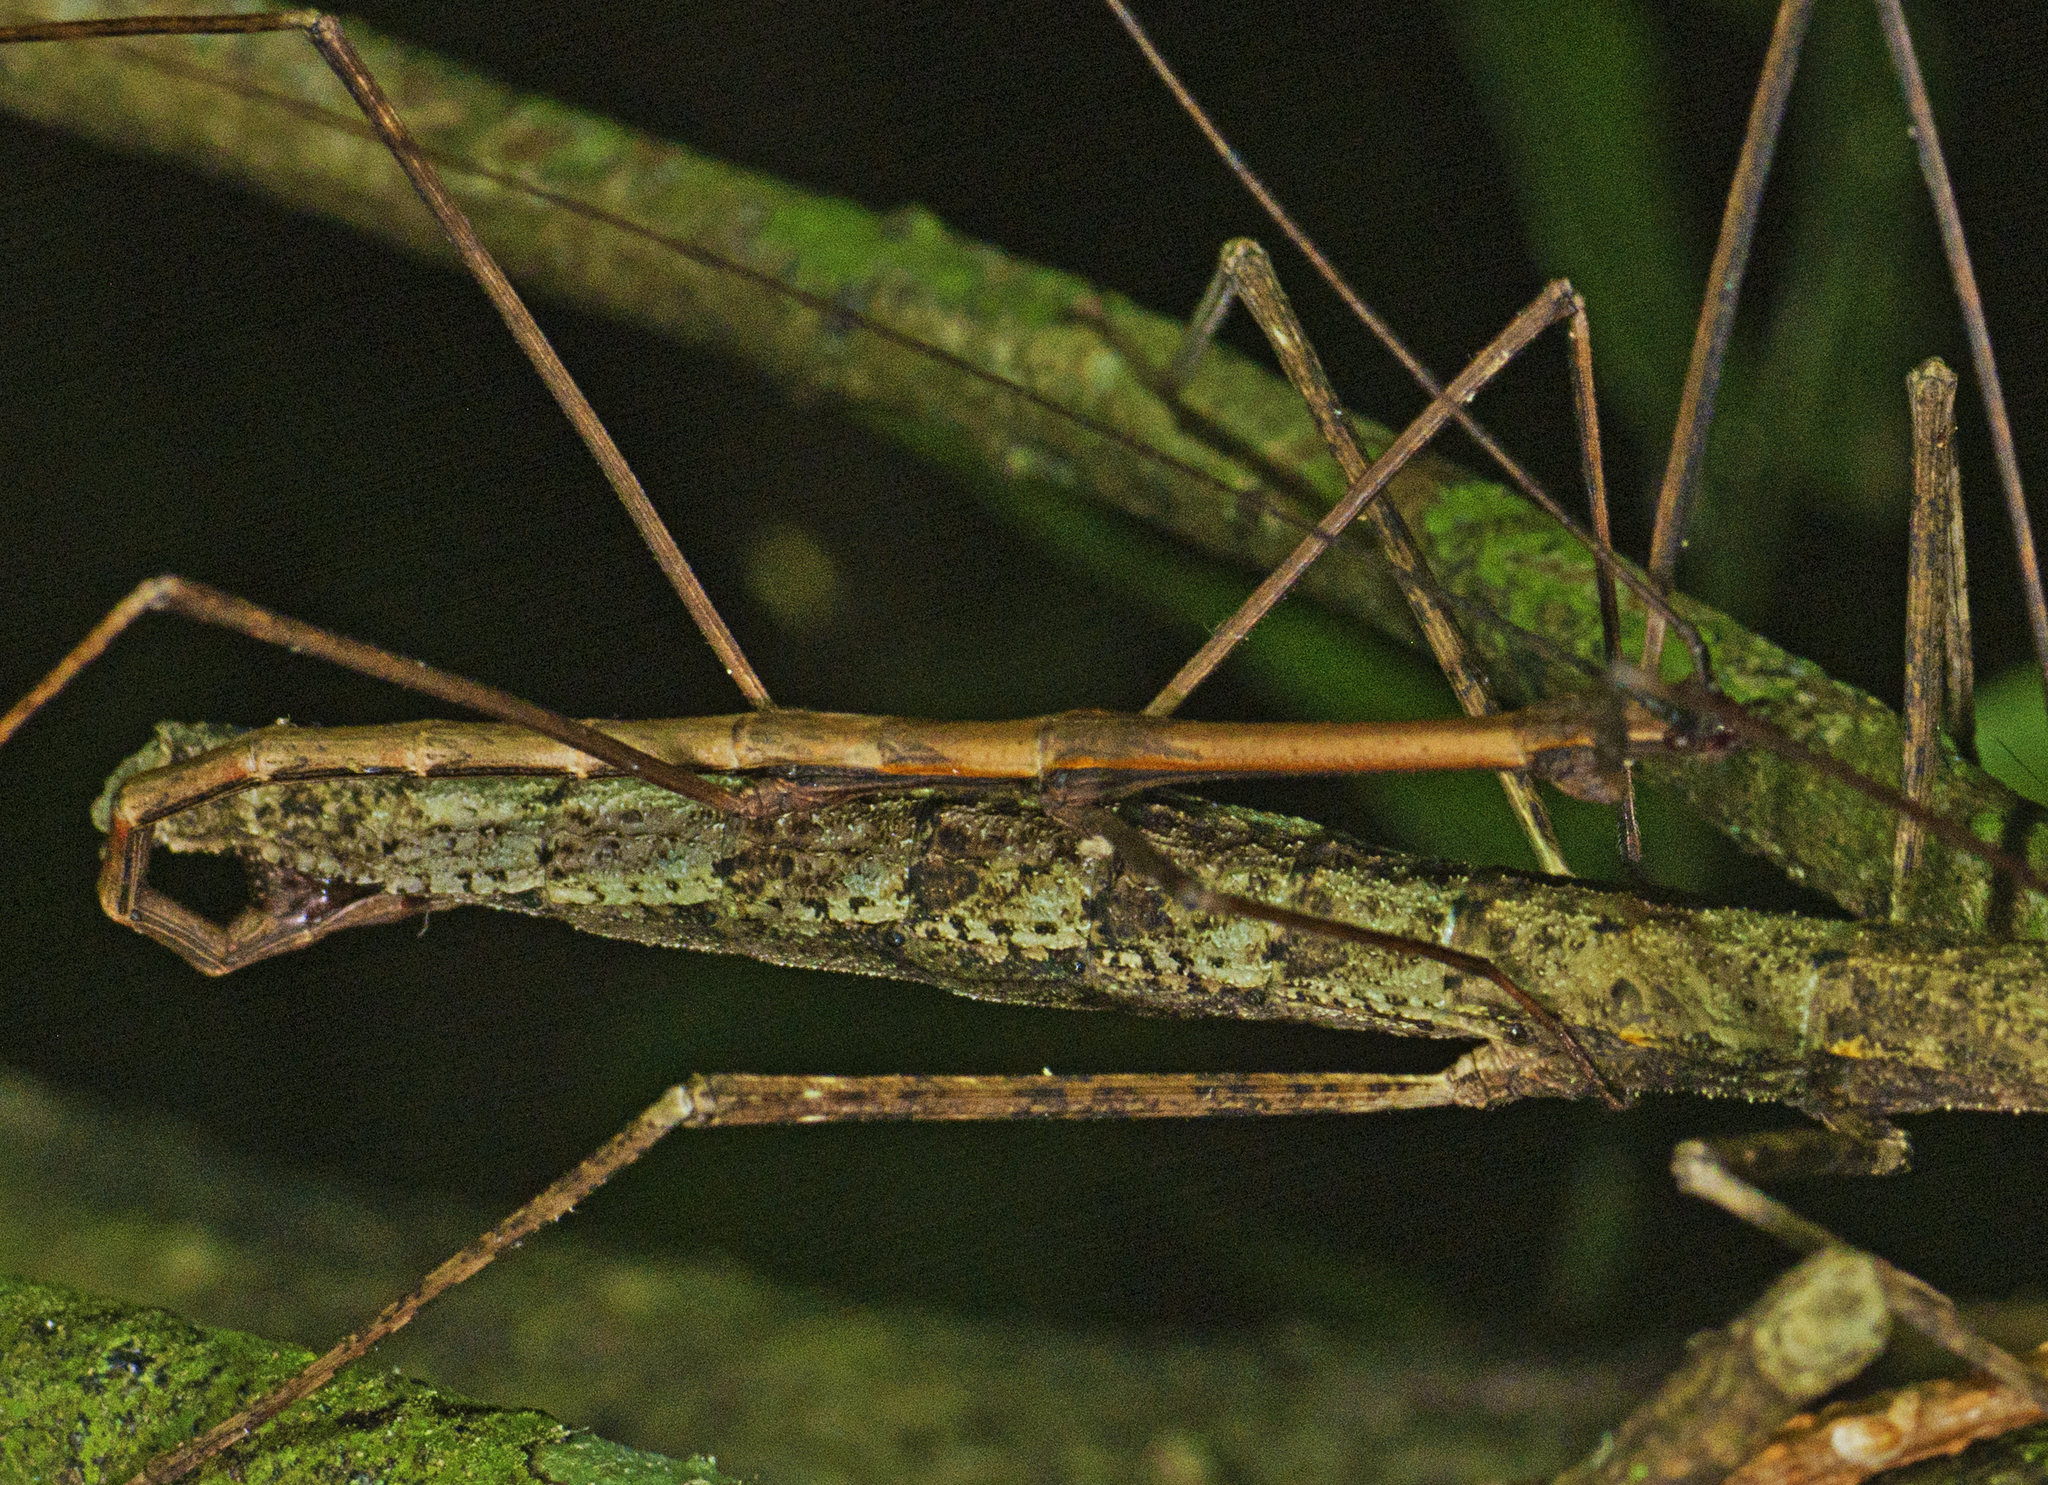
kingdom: Animalia
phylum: Arthropoda
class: Insecta
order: Phasmida
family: Lonchodidae
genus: Candovia
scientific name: Candovia granulosa
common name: Granulated stick-insect
